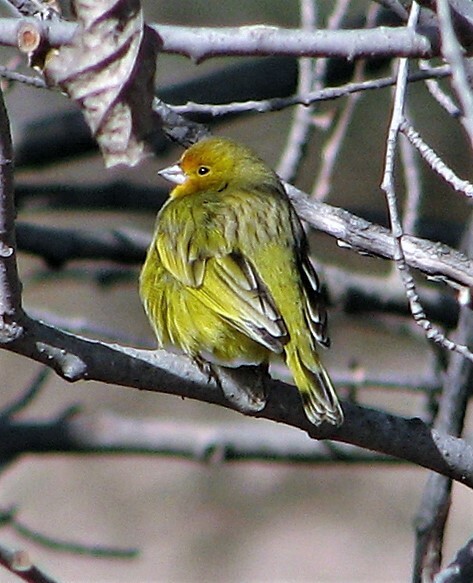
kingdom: Animalia
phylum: Chordata
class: Aves
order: Passeriformes
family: Thraupidae
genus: Sicalis
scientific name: Sicalis flaveola
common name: Saffron finch
